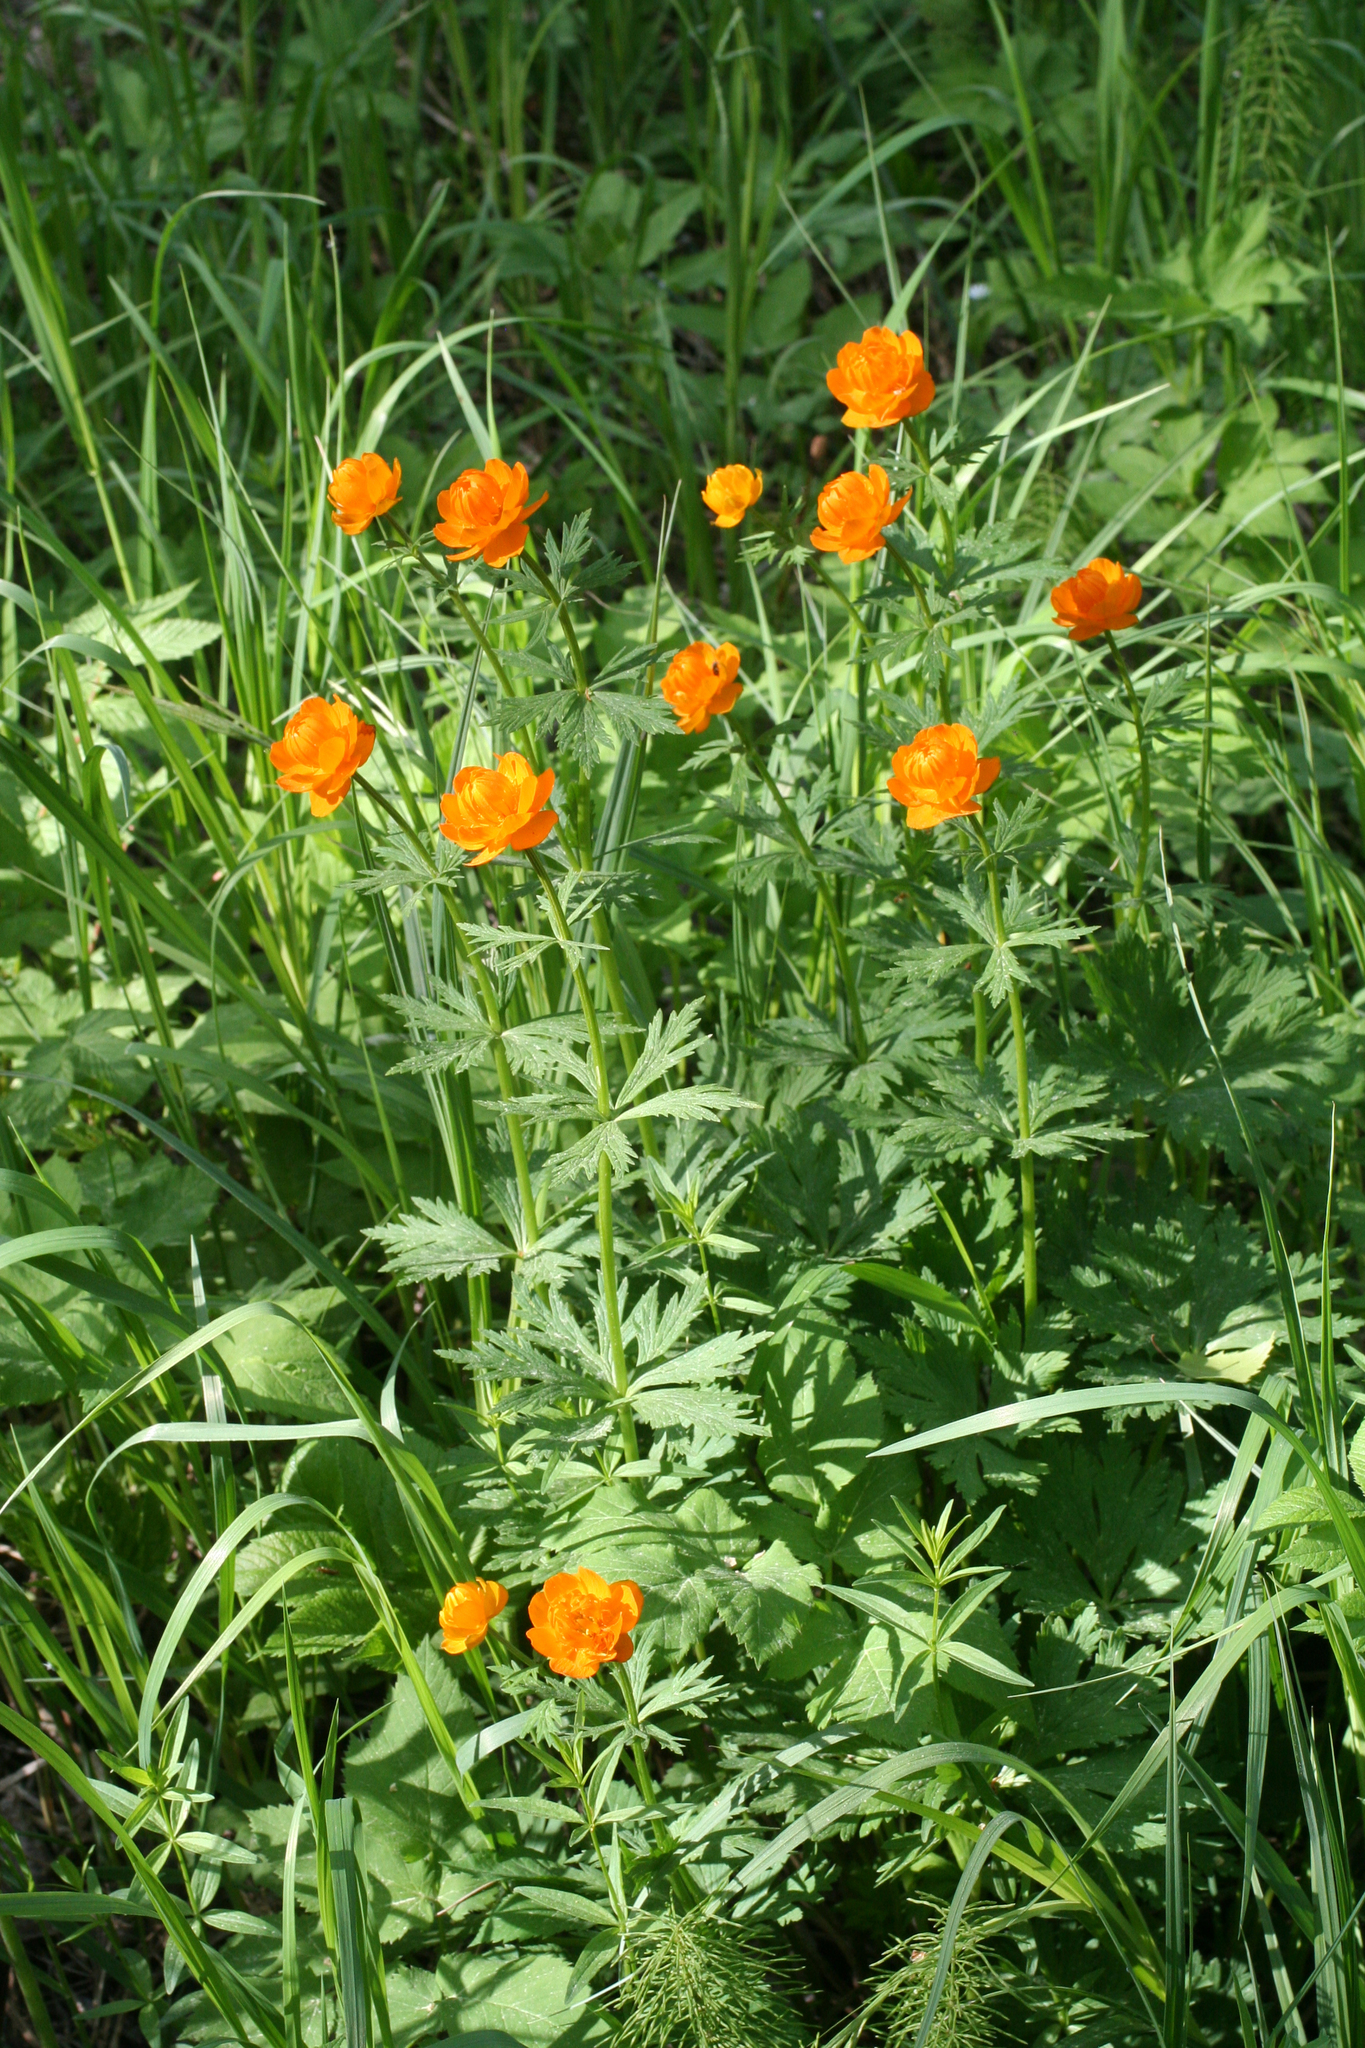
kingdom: Plantae
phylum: Tracheophyta
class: Magnoliopsida
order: Ranunculales
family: Ranunculaceae
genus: Trollius
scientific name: Trollius asiaticus
